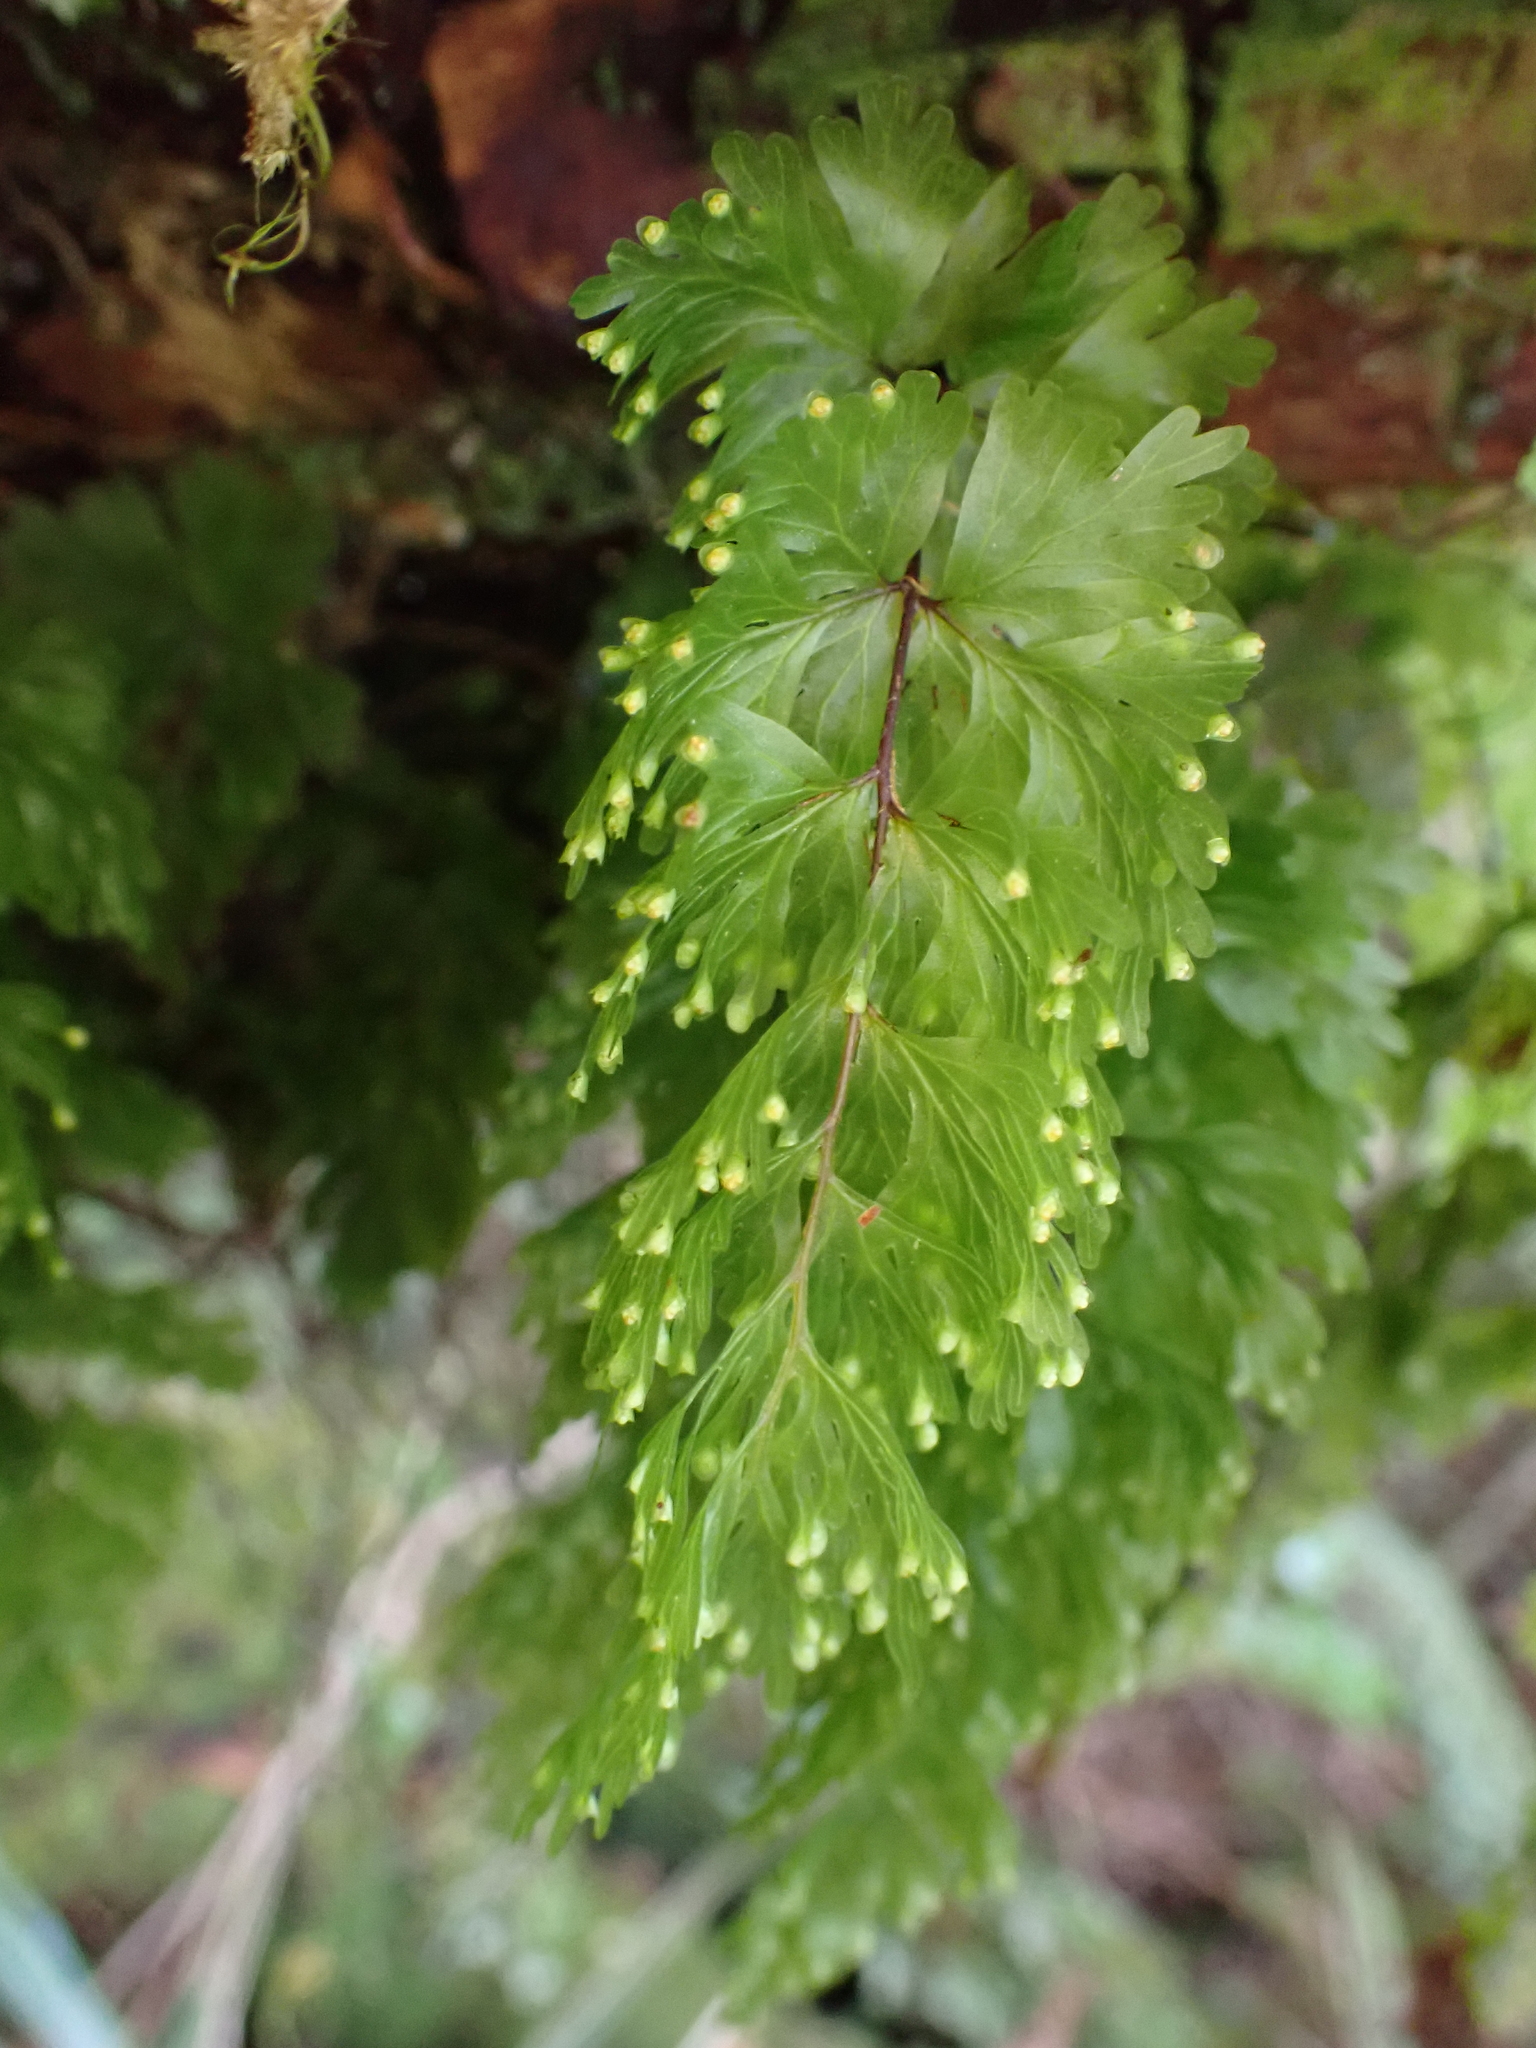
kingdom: Plantae
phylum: Tracheophyta
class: Polypodiopsida
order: Hymenophyllales
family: Hymenophyllaceae
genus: Hymenophyllum
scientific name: Hymenophyllum flabellatum
